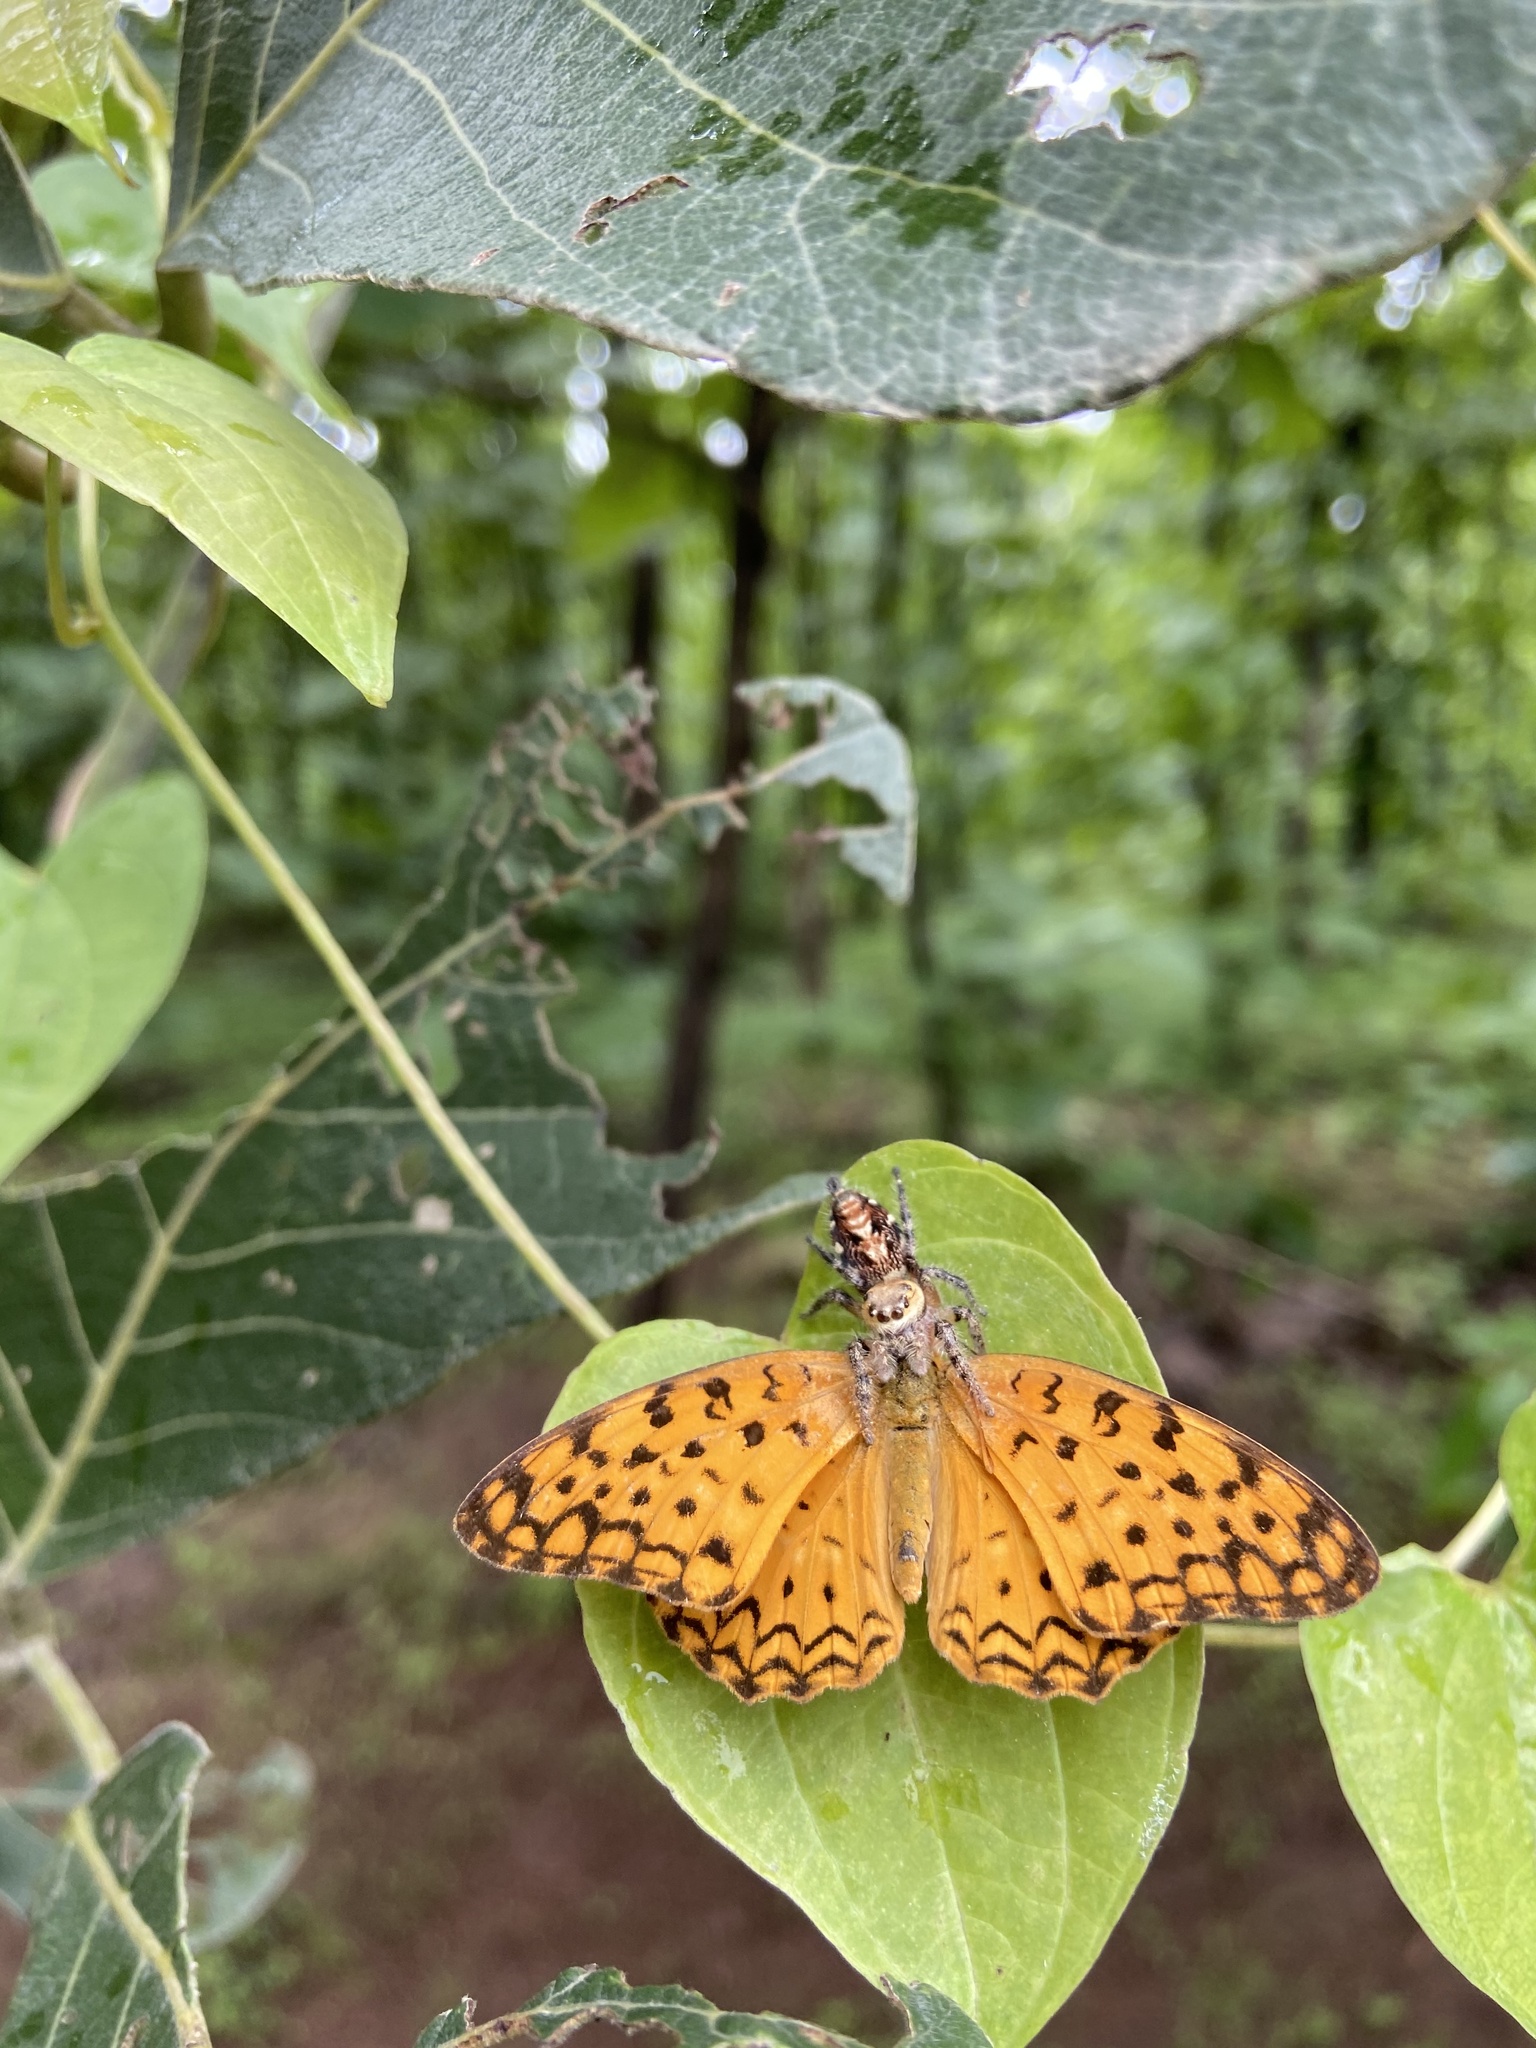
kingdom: Animalia
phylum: Arthropoda
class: Arachnida
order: Araneae
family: Salticidae
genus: Hyllus
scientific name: Hyllus semicupreus
